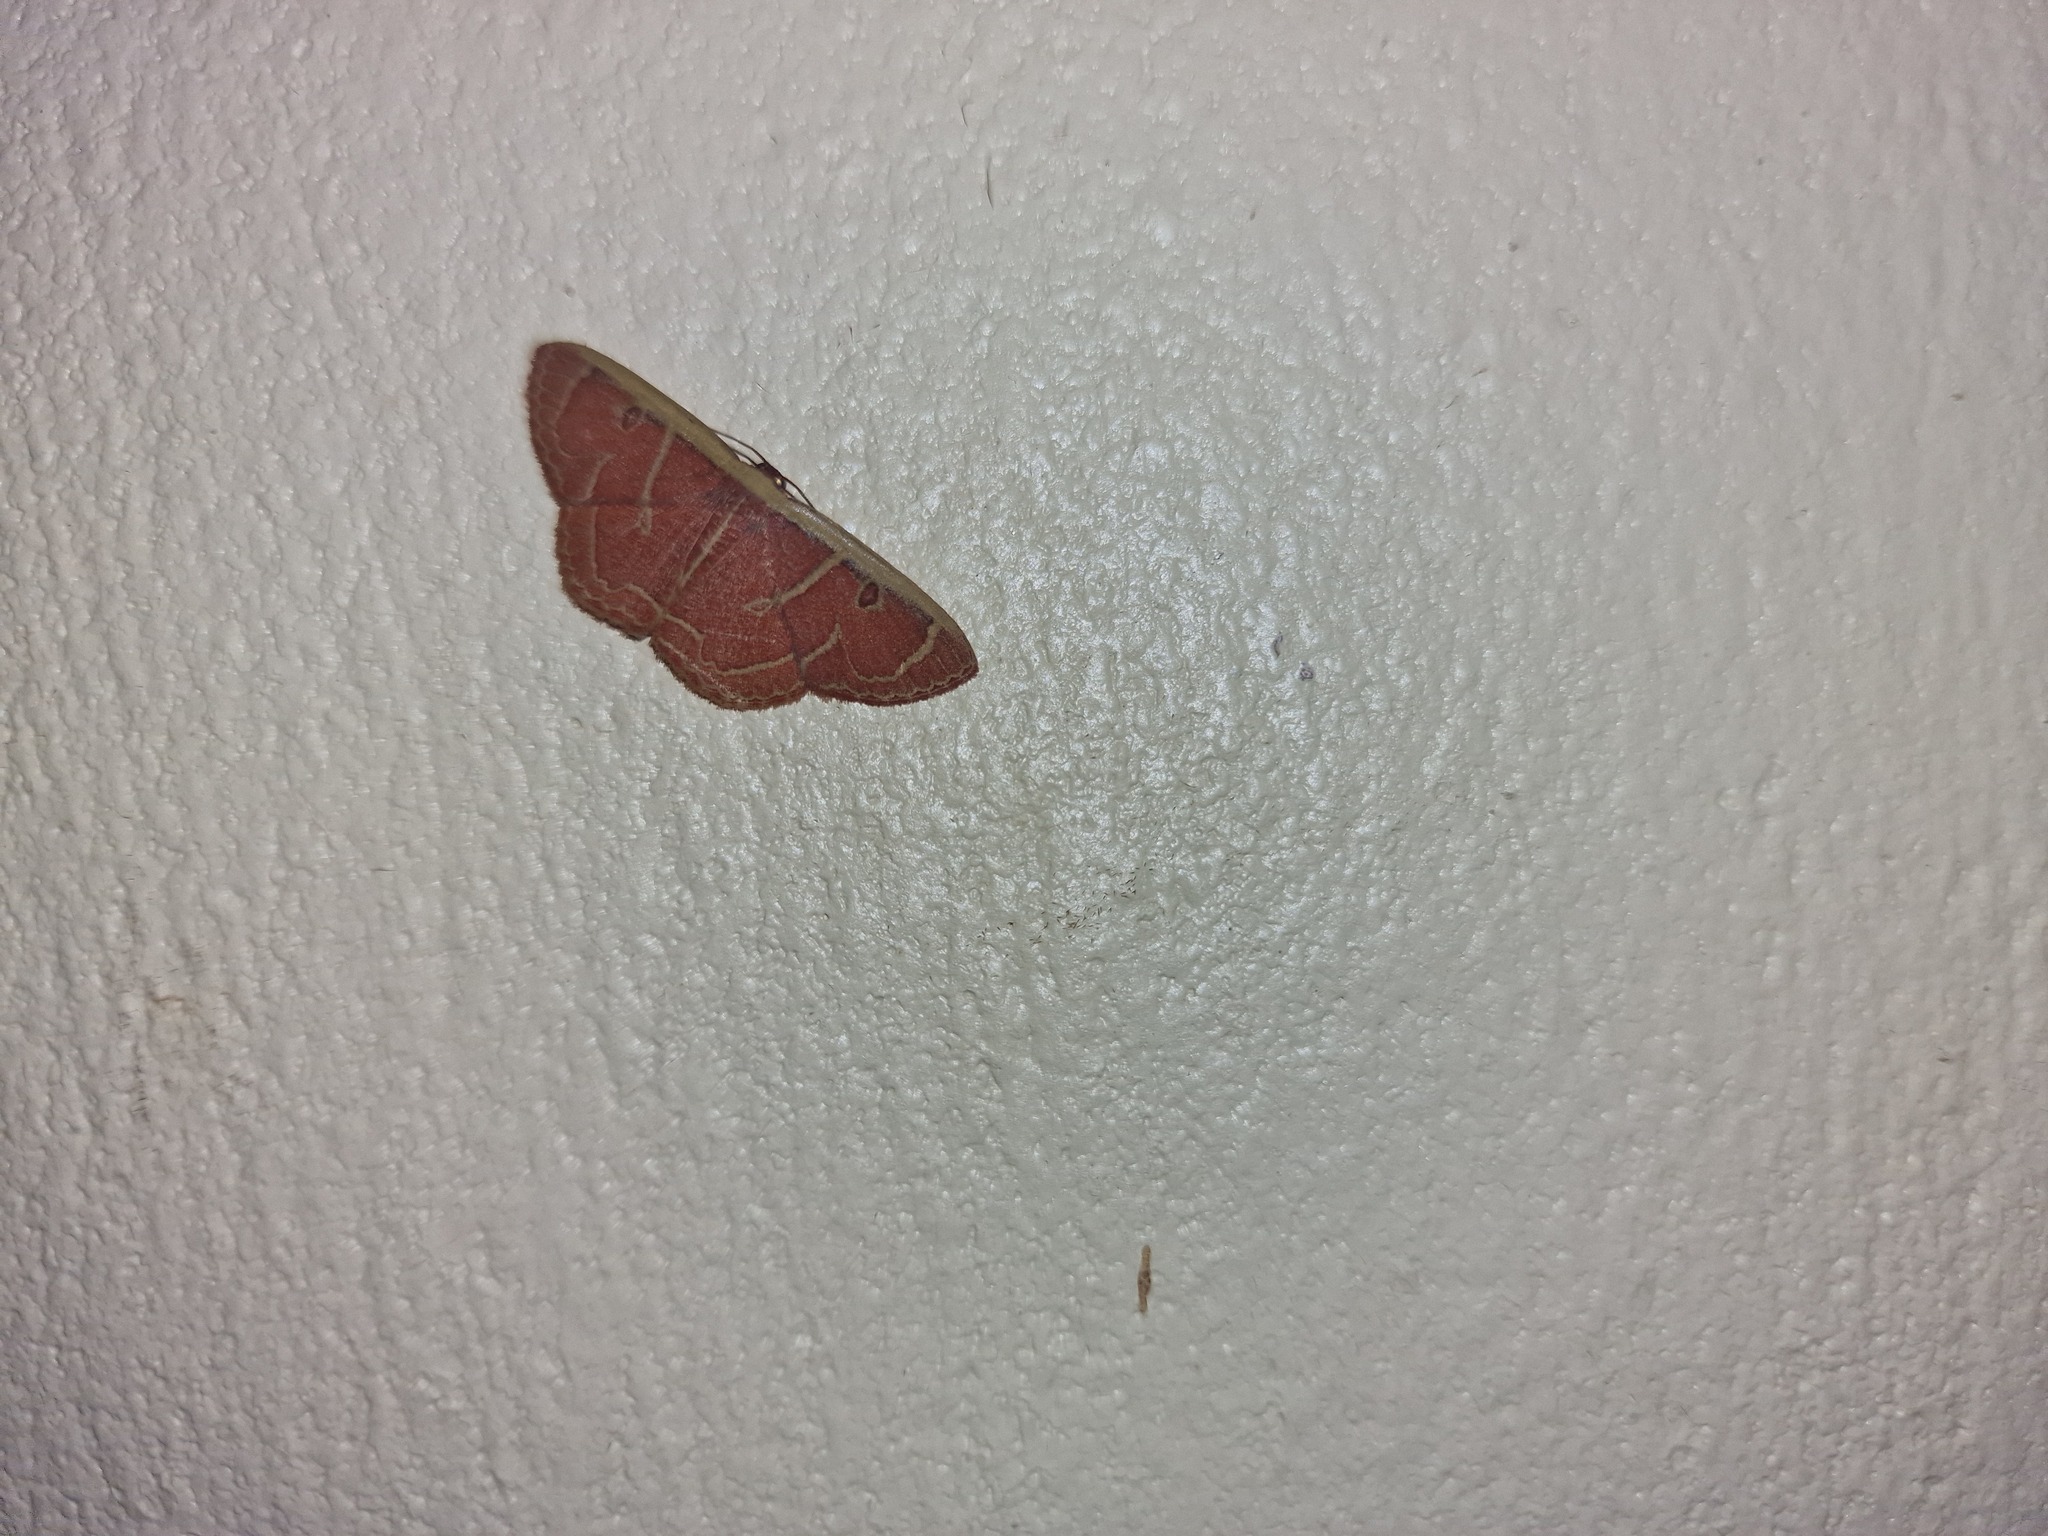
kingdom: Animalia
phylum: Arthropoda
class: Insecta
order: Lepidoptera
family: Geometridae
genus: Semaeopus
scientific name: Semaeopus olivaceonotata
